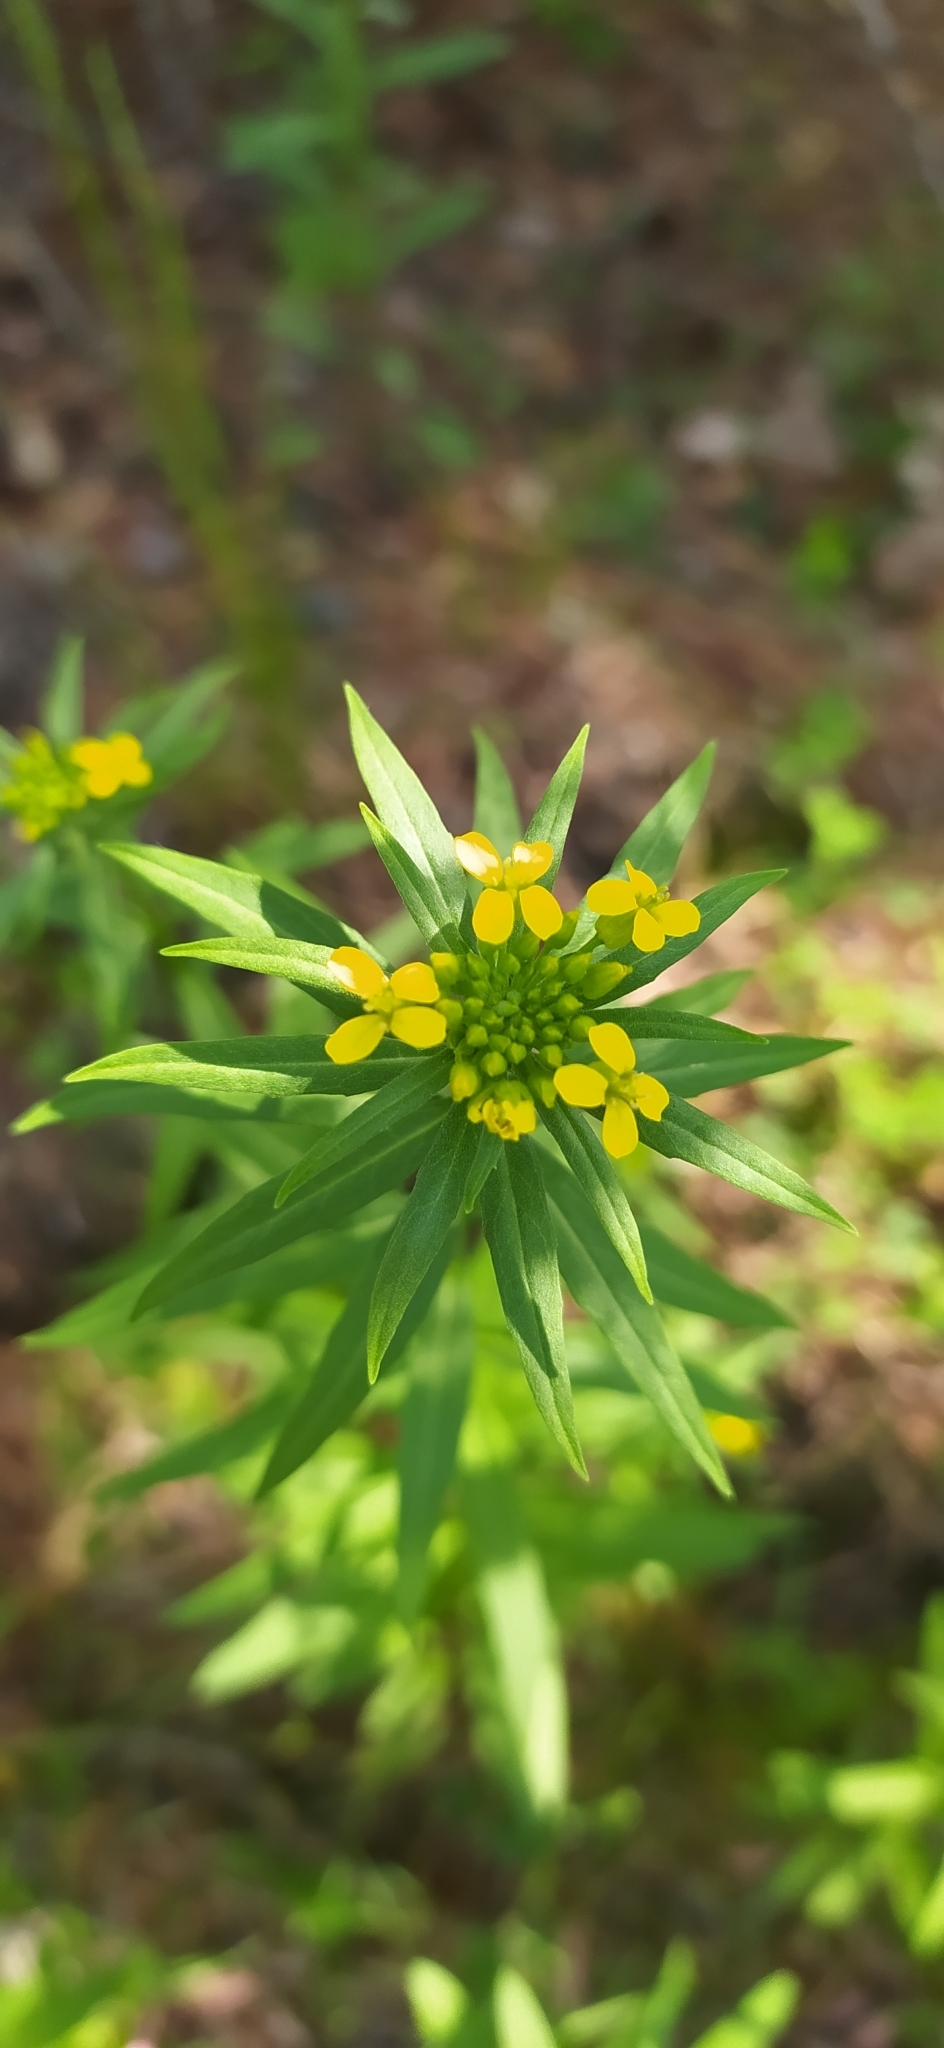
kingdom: Plantae
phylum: Tracheophyta
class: Magnoliopsida
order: Brassicales
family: Brassicaceae
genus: Erysimum
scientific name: Erysimum cheiranthoides
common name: Treacle mustard
